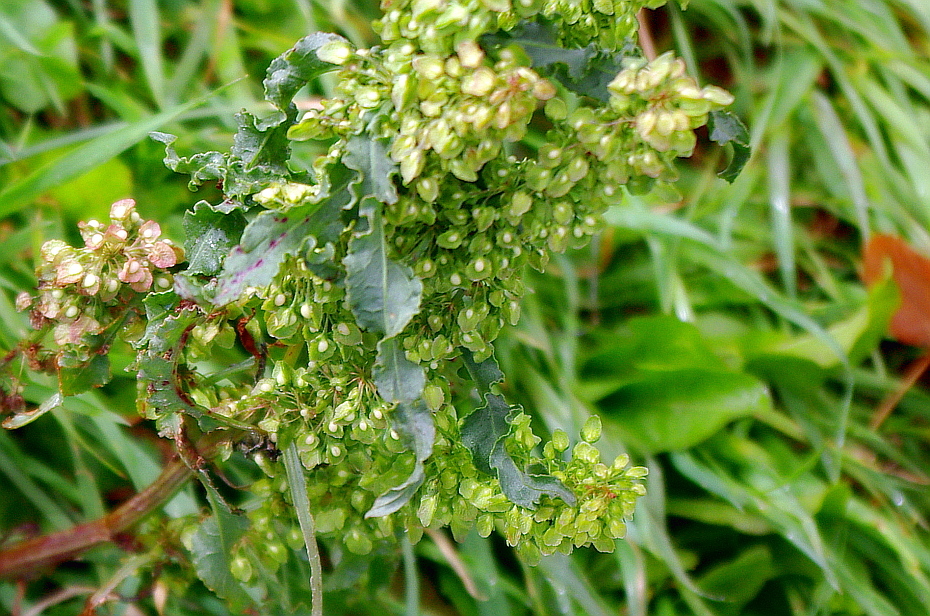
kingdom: Plantae
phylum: Tracheophyta
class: Magnoliopsida
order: Caryophyllales
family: Polygonaceae
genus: Rumex
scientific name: Rumex crispus
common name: Curled dock
